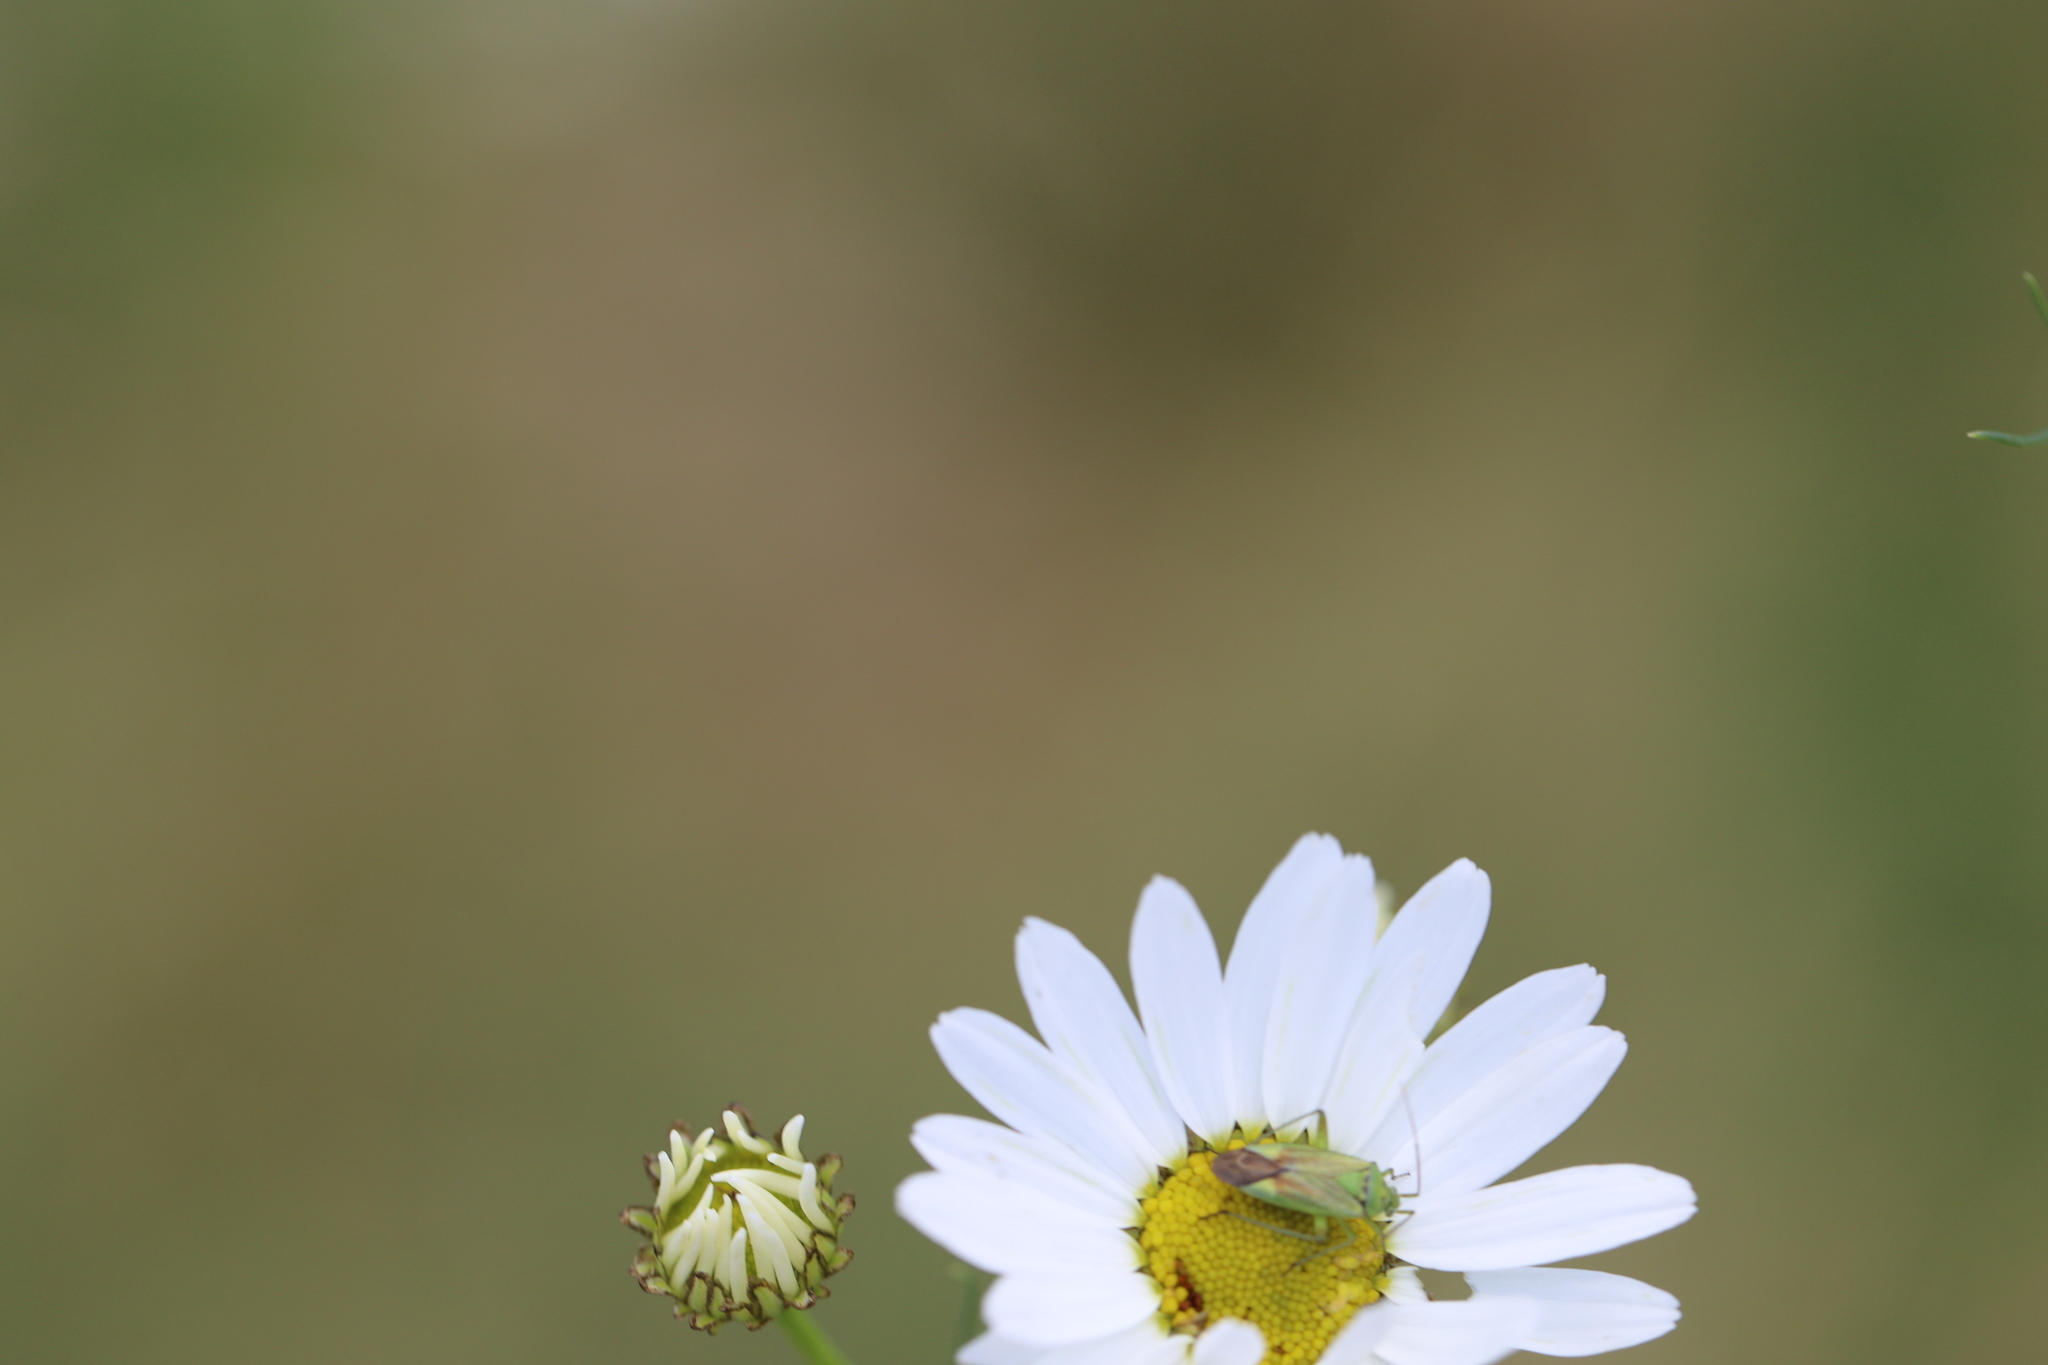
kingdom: Animalia
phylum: Arthropoda
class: Insecta
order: Hemiptera
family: Miridae
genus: Closterotomus
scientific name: Closterotomus norvegicus
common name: Plant bug
